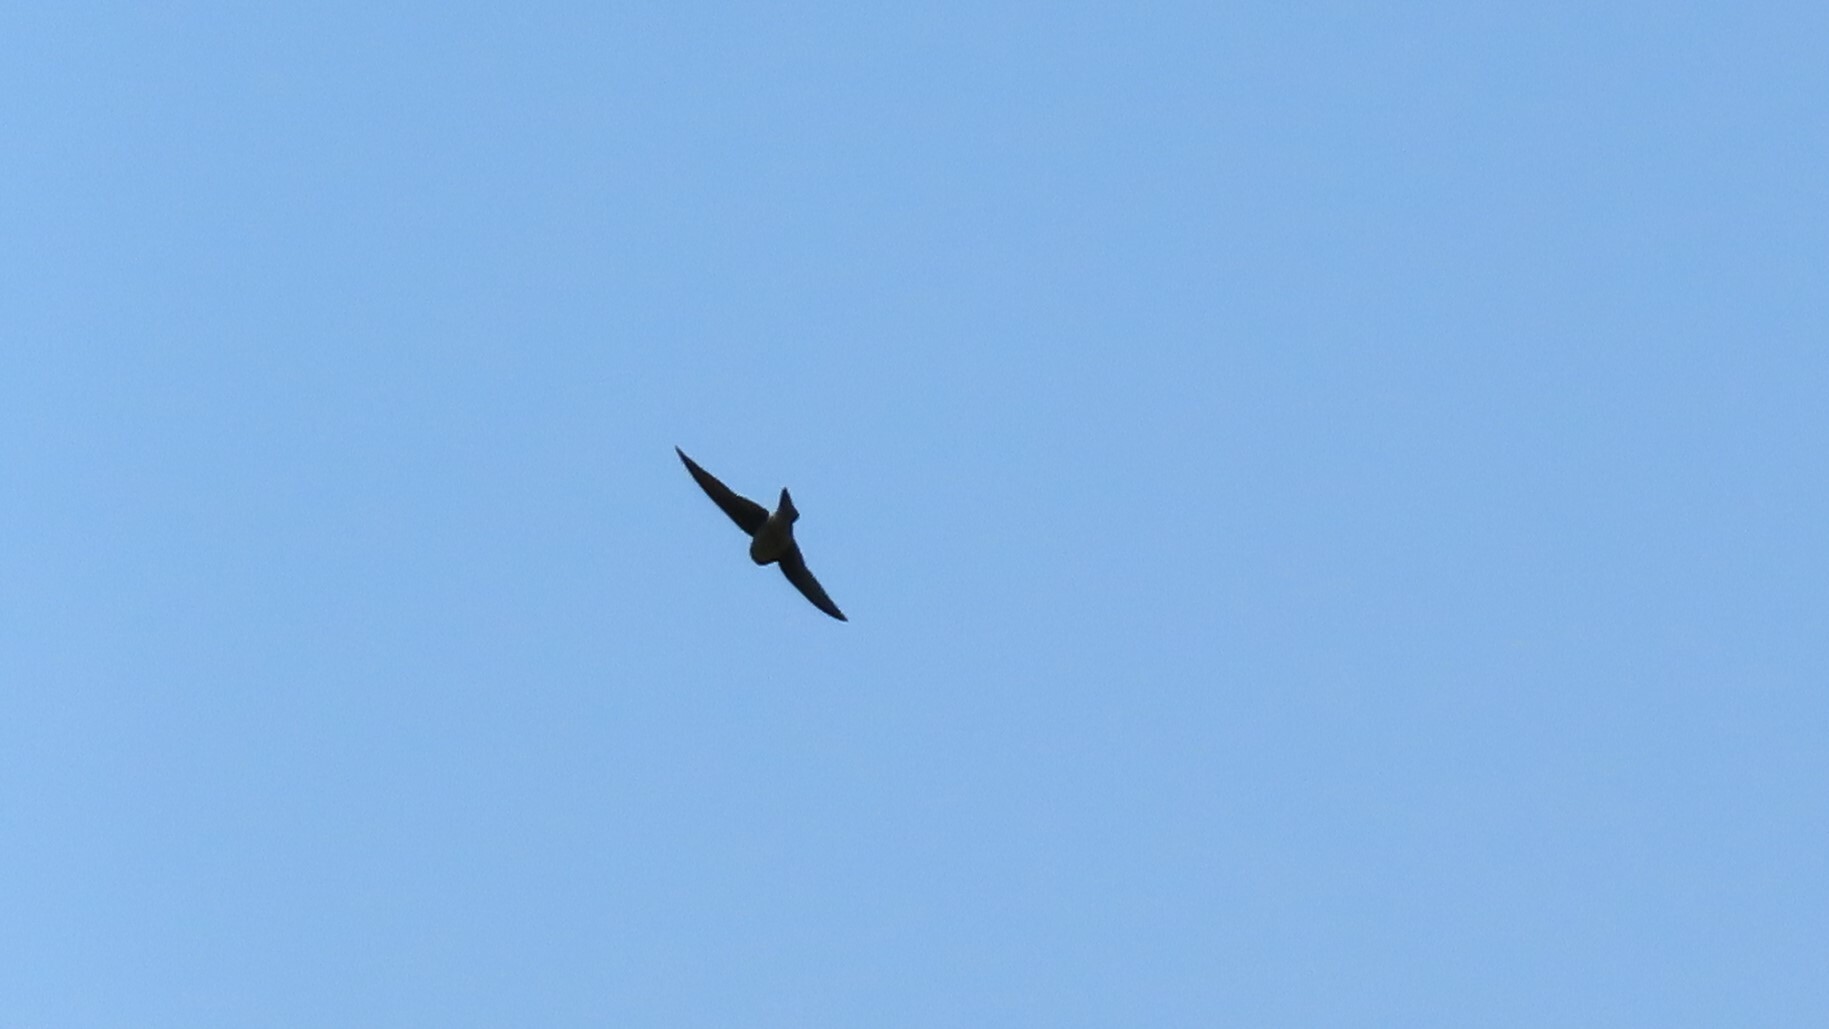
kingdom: Animalia
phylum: Chordata
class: Aves
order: Passeriformes
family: Hirundinidae
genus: Tachycineta
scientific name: Tachycineta bicolor
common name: Tree swallow
